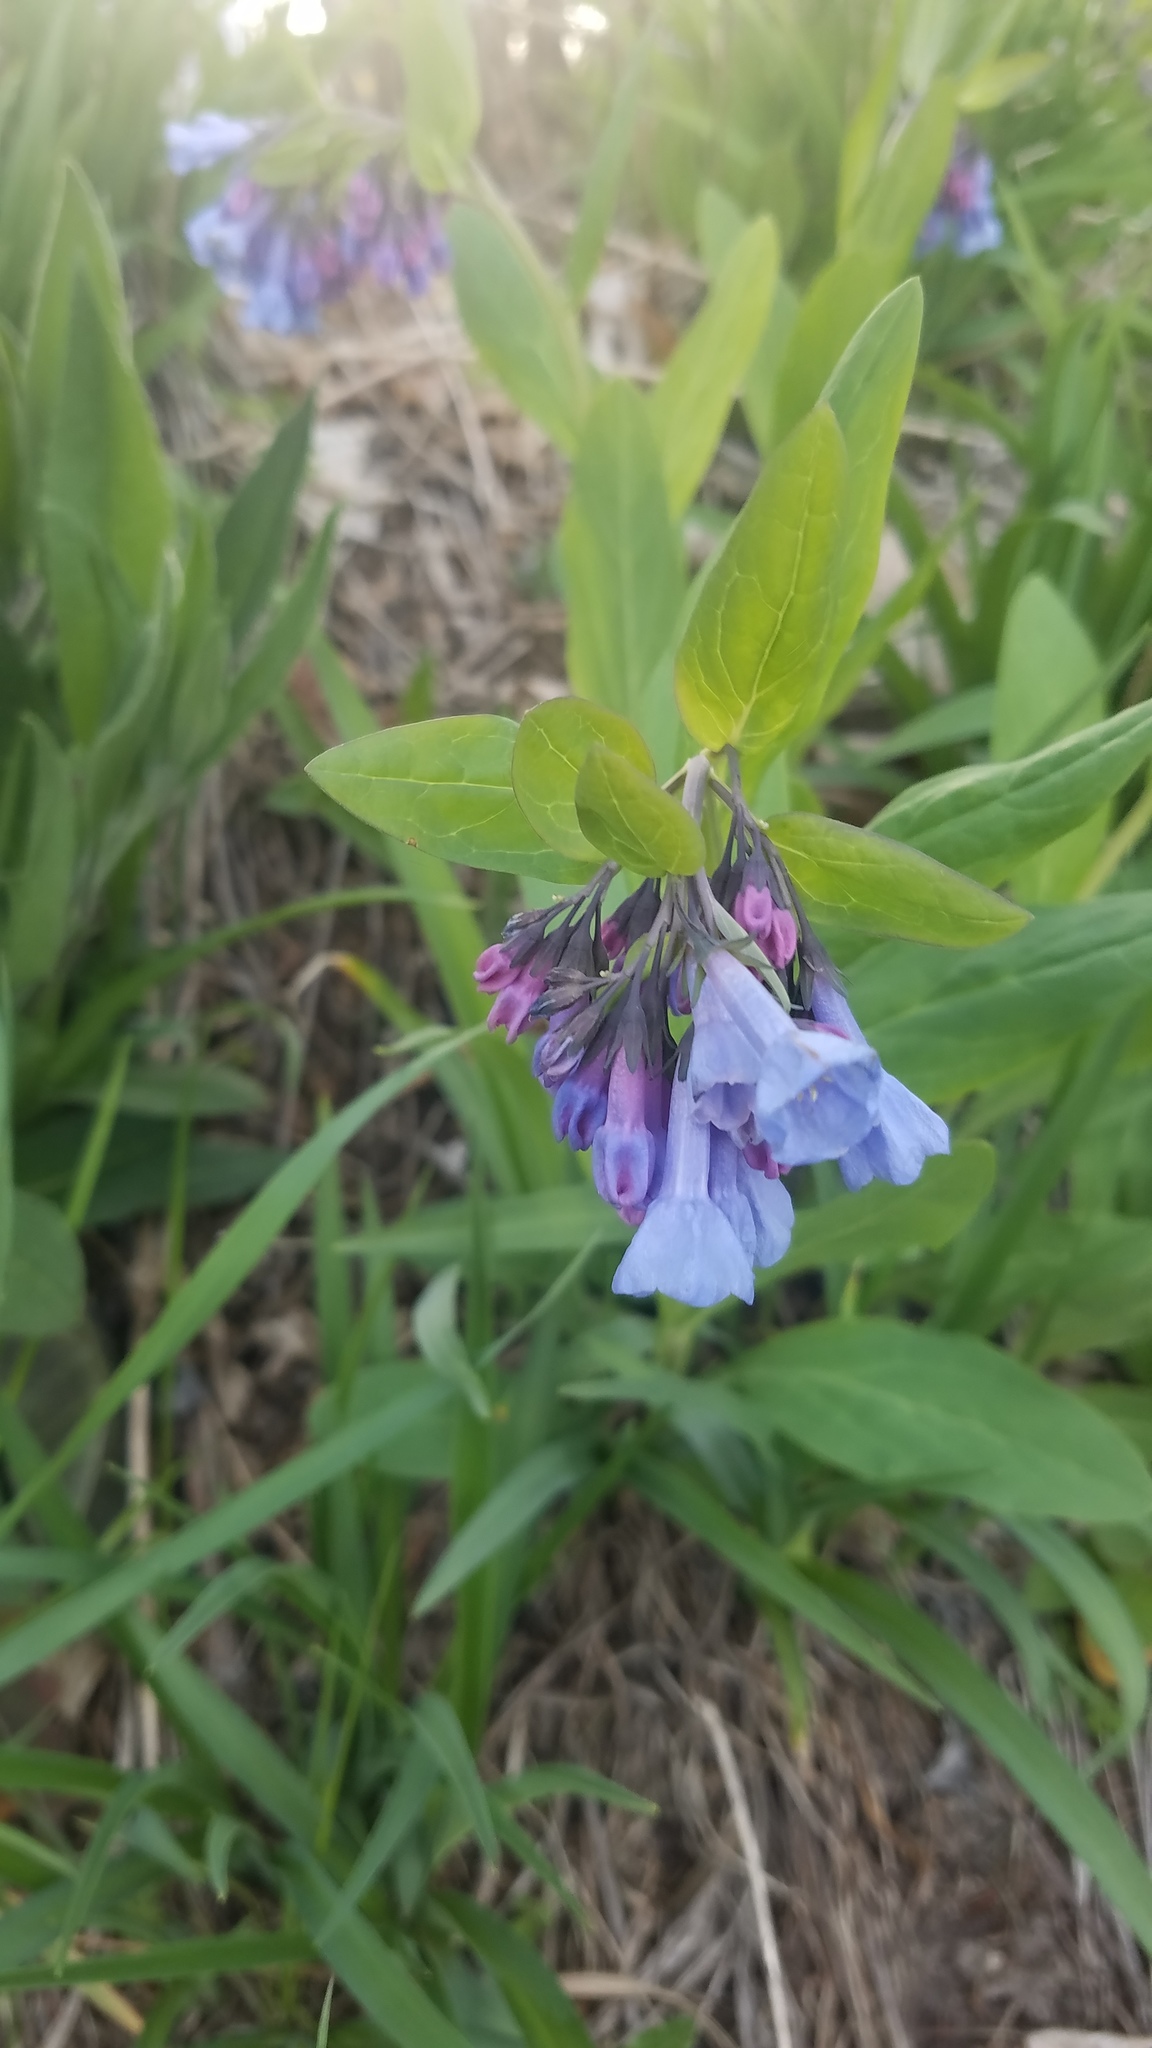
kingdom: Plantae
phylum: Tracheophyta
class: Magnoliopsida
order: Boraginales
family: Boraginaceae
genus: Mertensia
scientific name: Mertensia virginica
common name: Virginia bluebells
